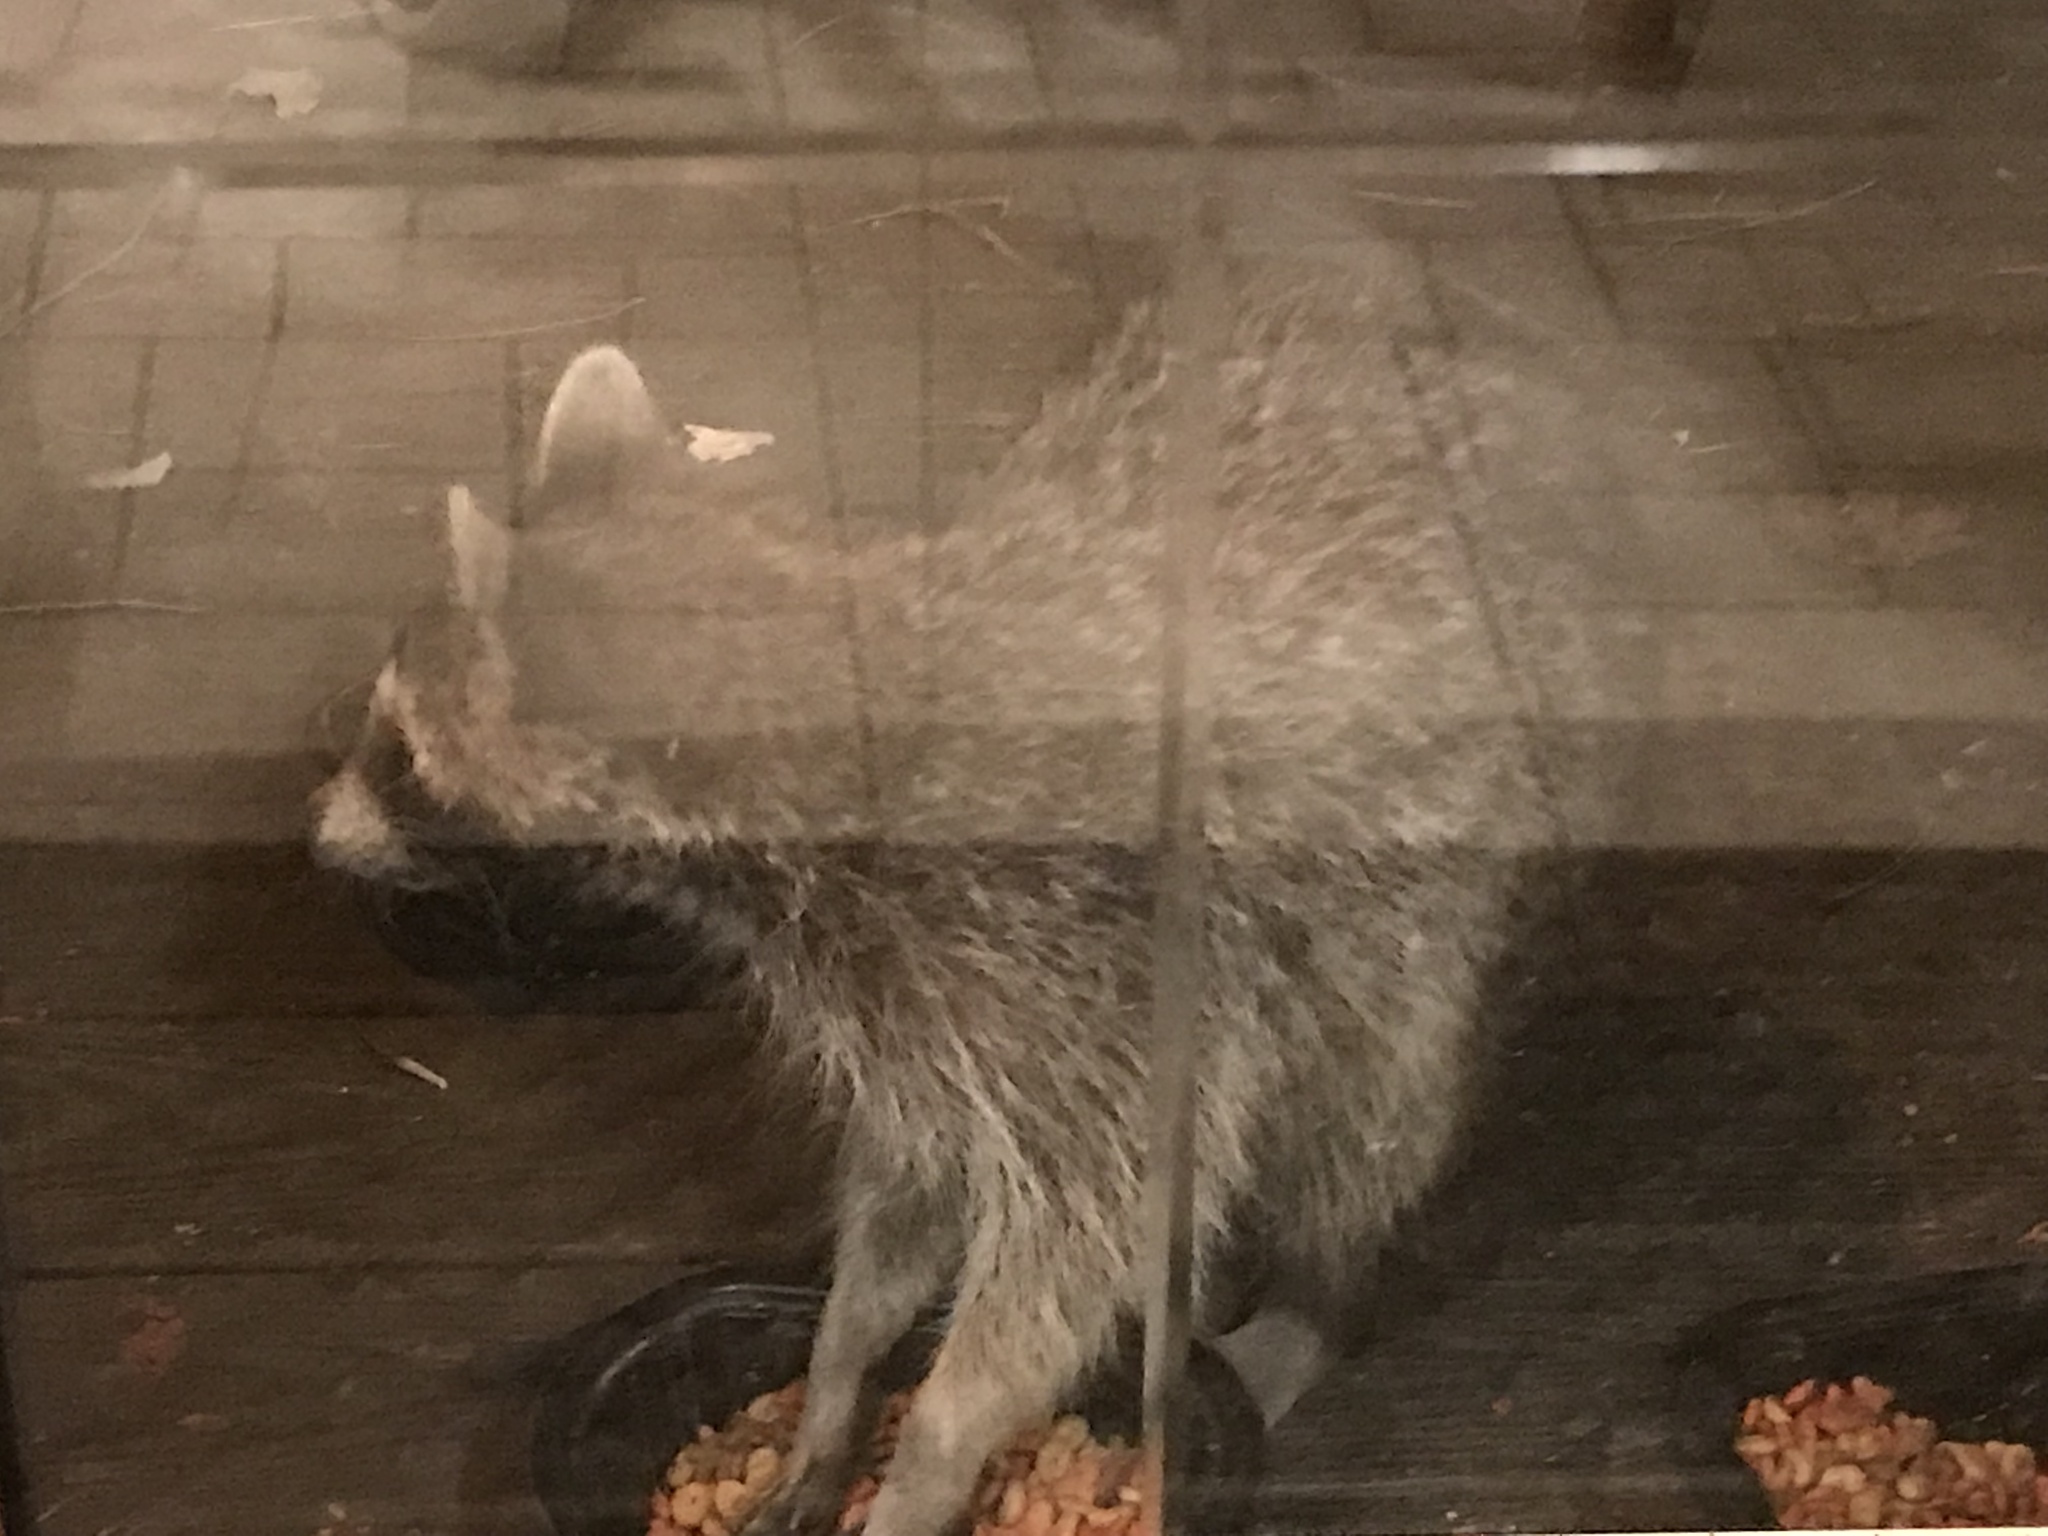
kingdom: Animalia
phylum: Chordata
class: Mammalia
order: Carnivora
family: Procyonidae
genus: Procyon
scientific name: Procyon lotor
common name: Raccoon
